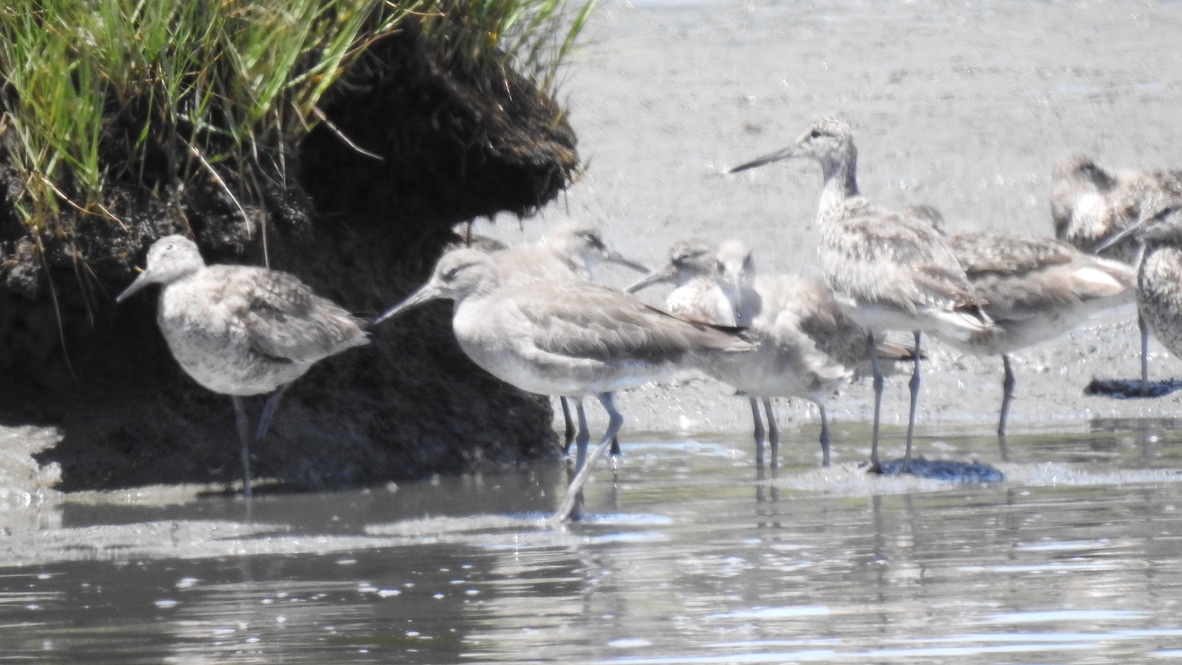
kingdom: Animalia
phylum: Chordata
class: Aves
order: Charadriiformes
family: Scolopacidae
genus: Tringa
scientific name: Tringa semipalmata
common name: Willet
